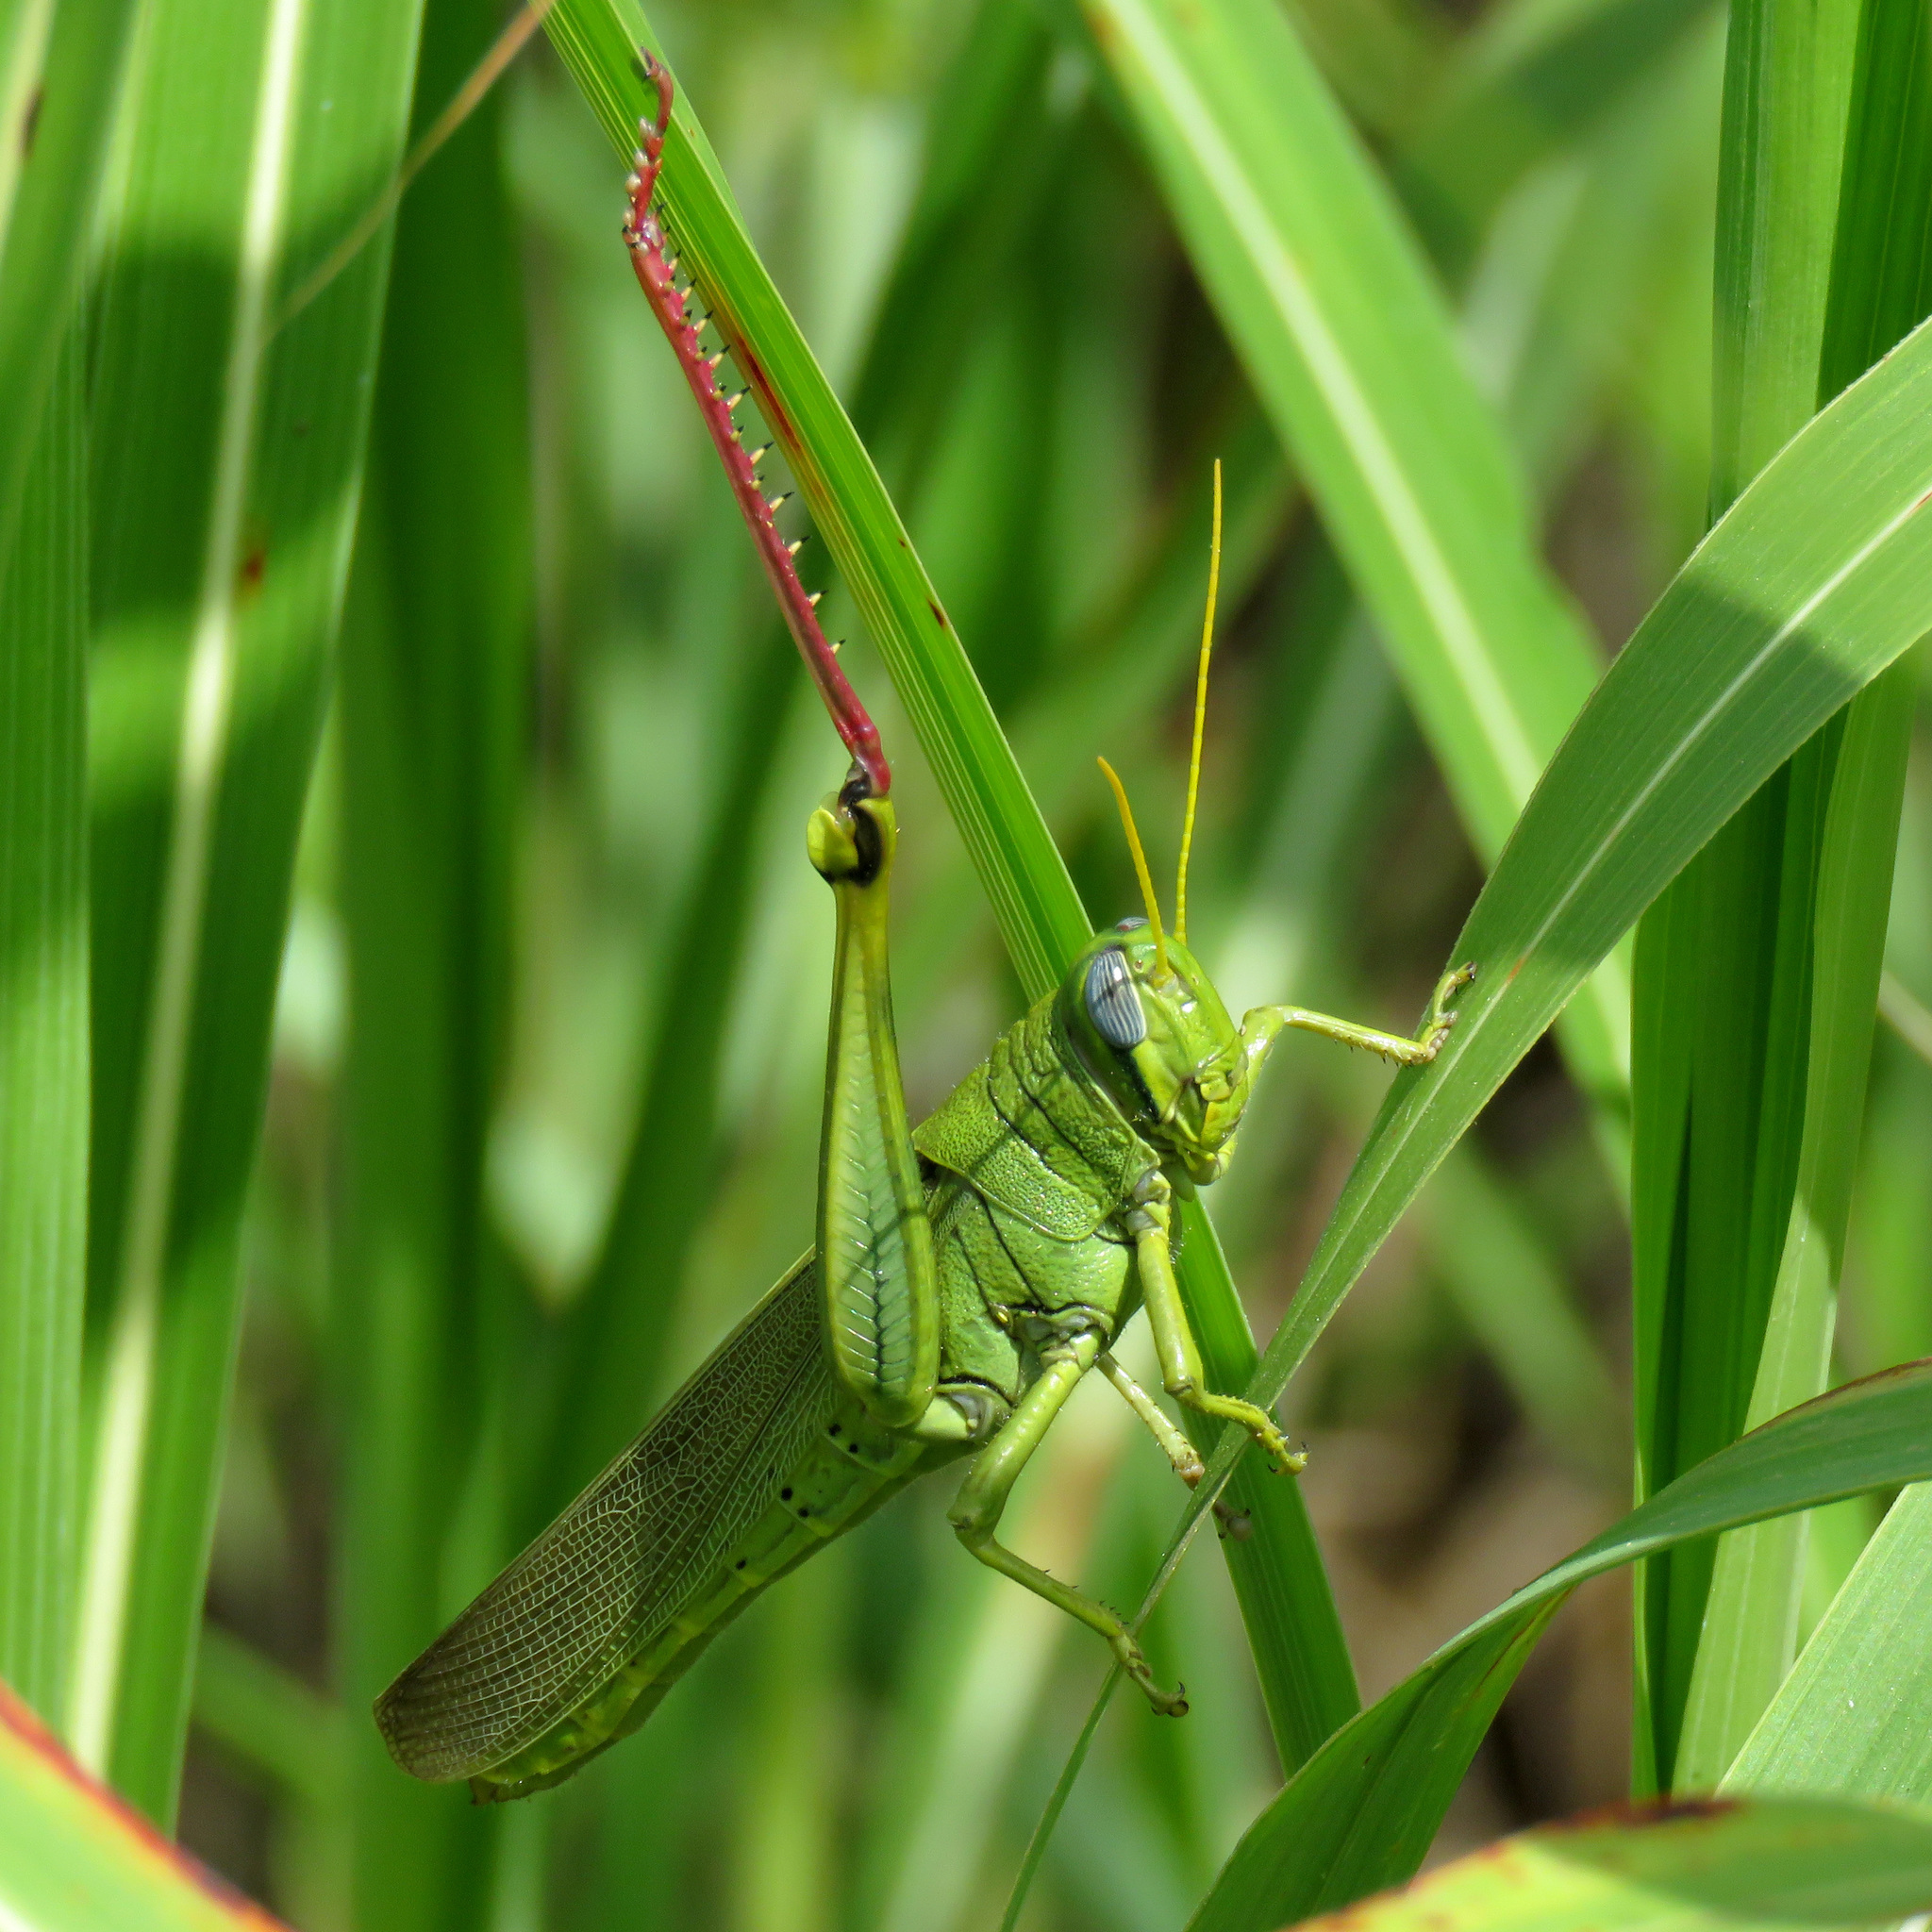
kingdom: Animalia
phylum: Arthropoda
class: Insecta
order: Orthoptera
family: Acrididae
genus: Schistocerca
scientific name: Schistocerca shoshone
